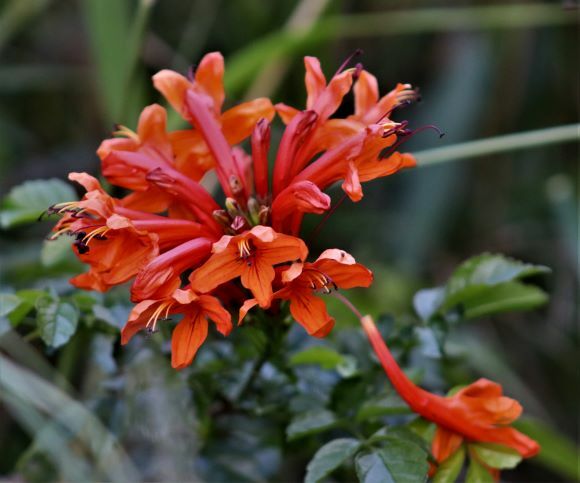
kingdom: Plantae
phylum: Tracheophyta
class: Magnoliopsida
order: Lamiales
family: Bignoniaceae
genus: Tecomaria
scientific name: Tecomaria capensis
